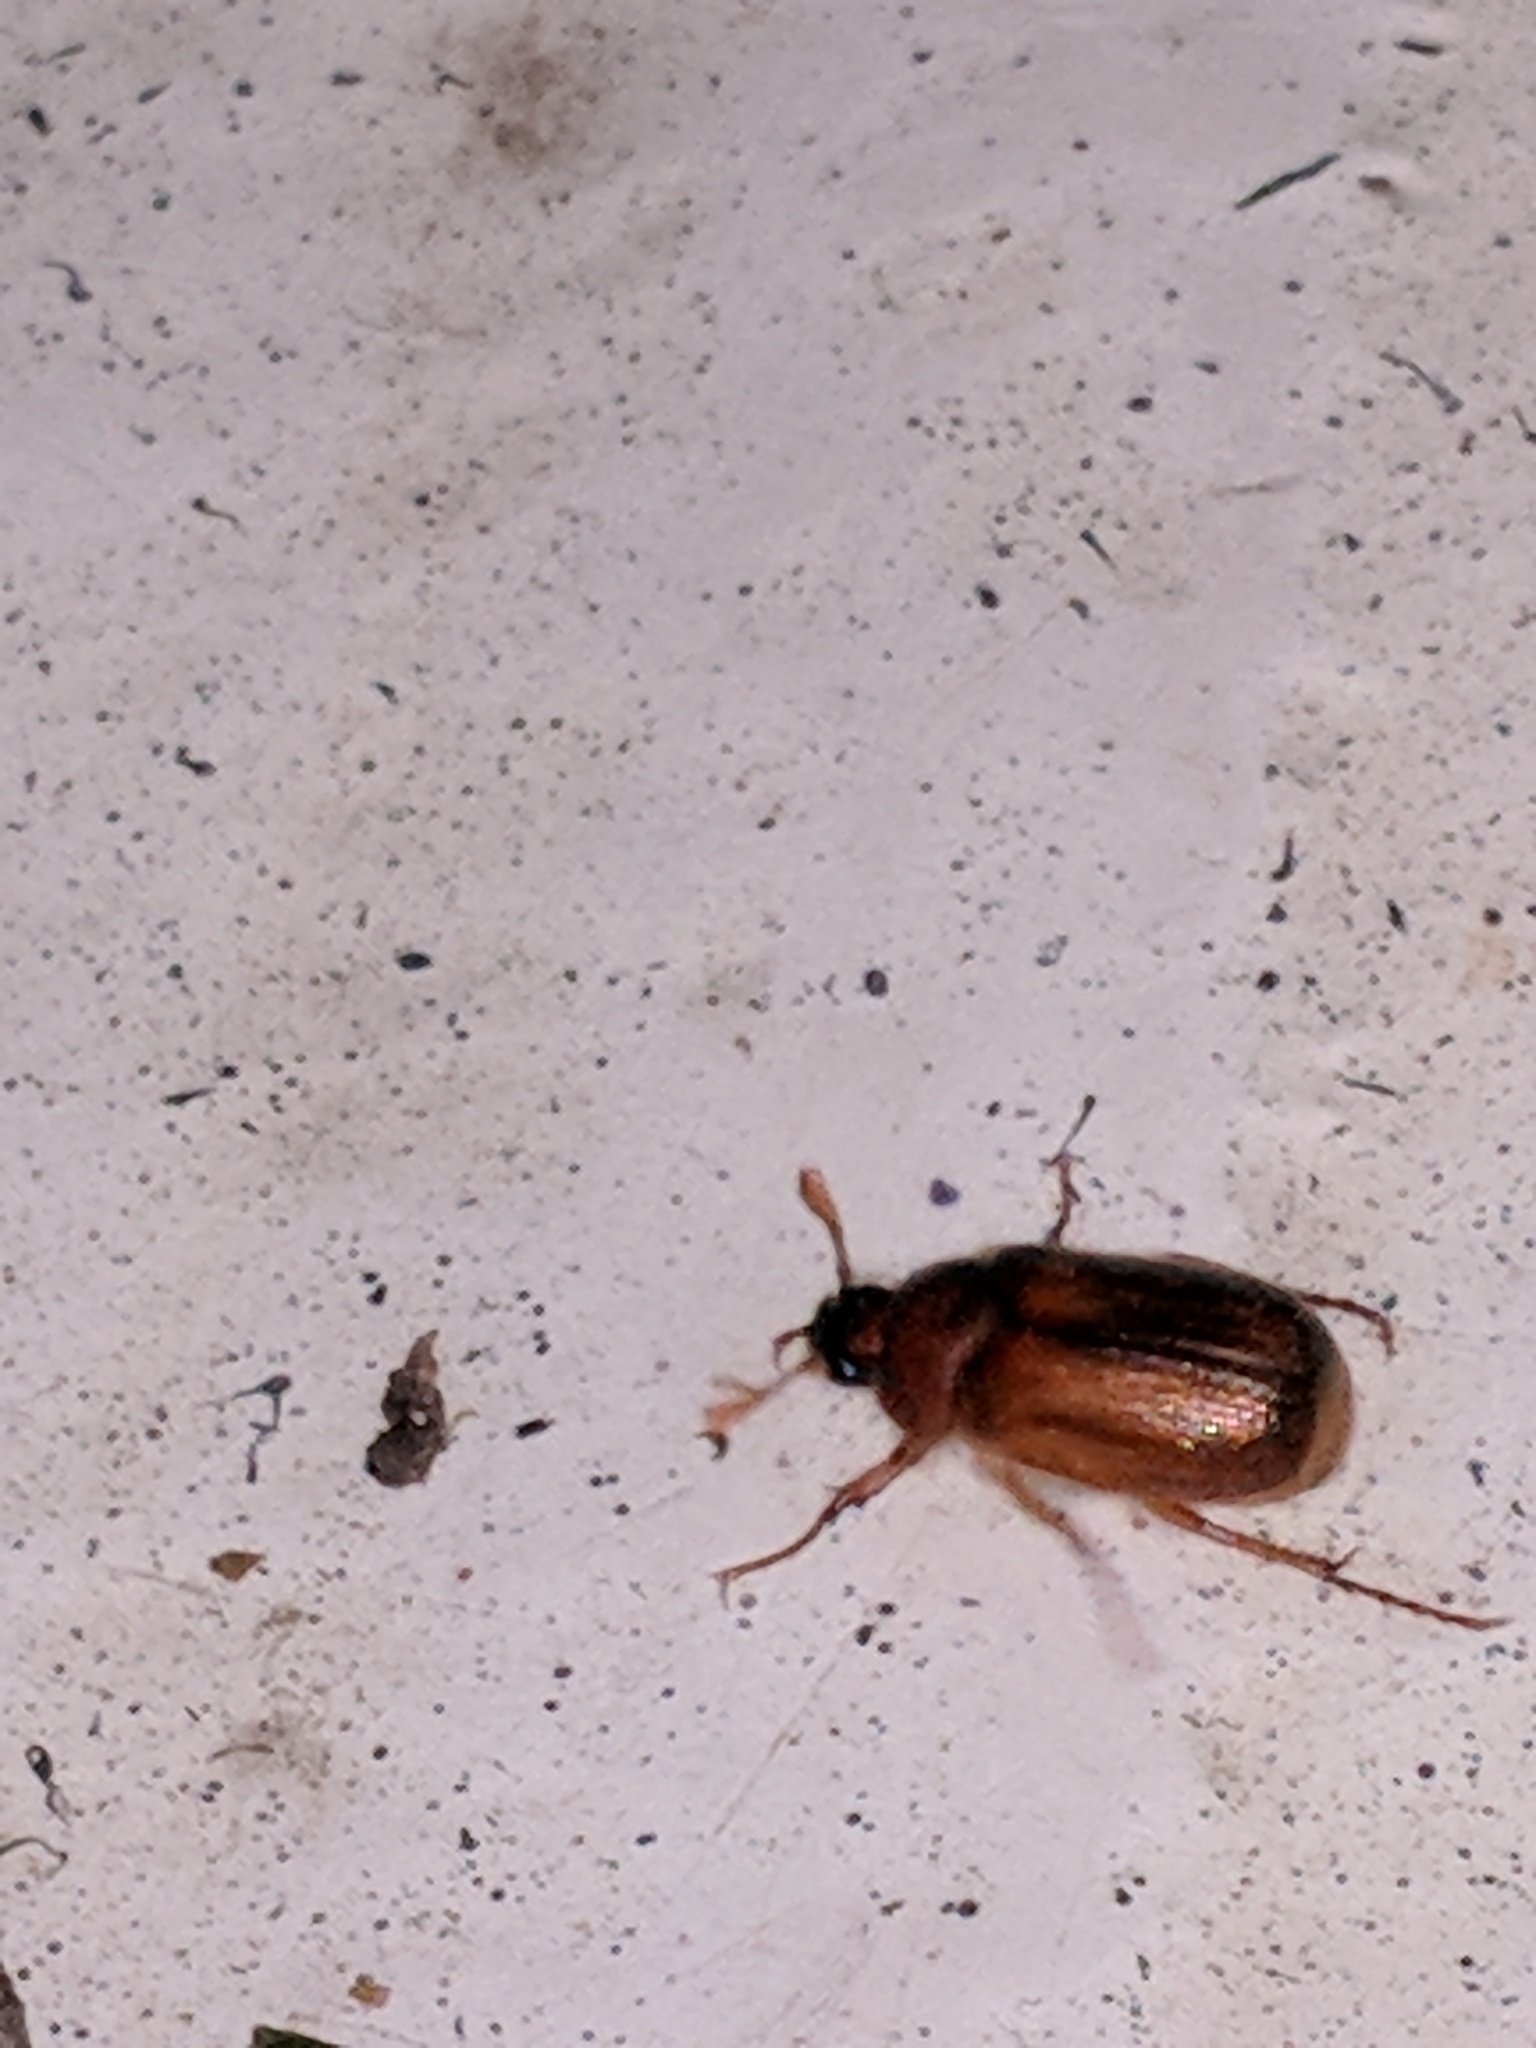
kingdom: Animalia
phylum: Arthropoda
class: Insecta
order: Coleoptera
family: Scarabaeidae
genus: Amphimallon
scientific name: Amphimallon majale
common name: European chafer
